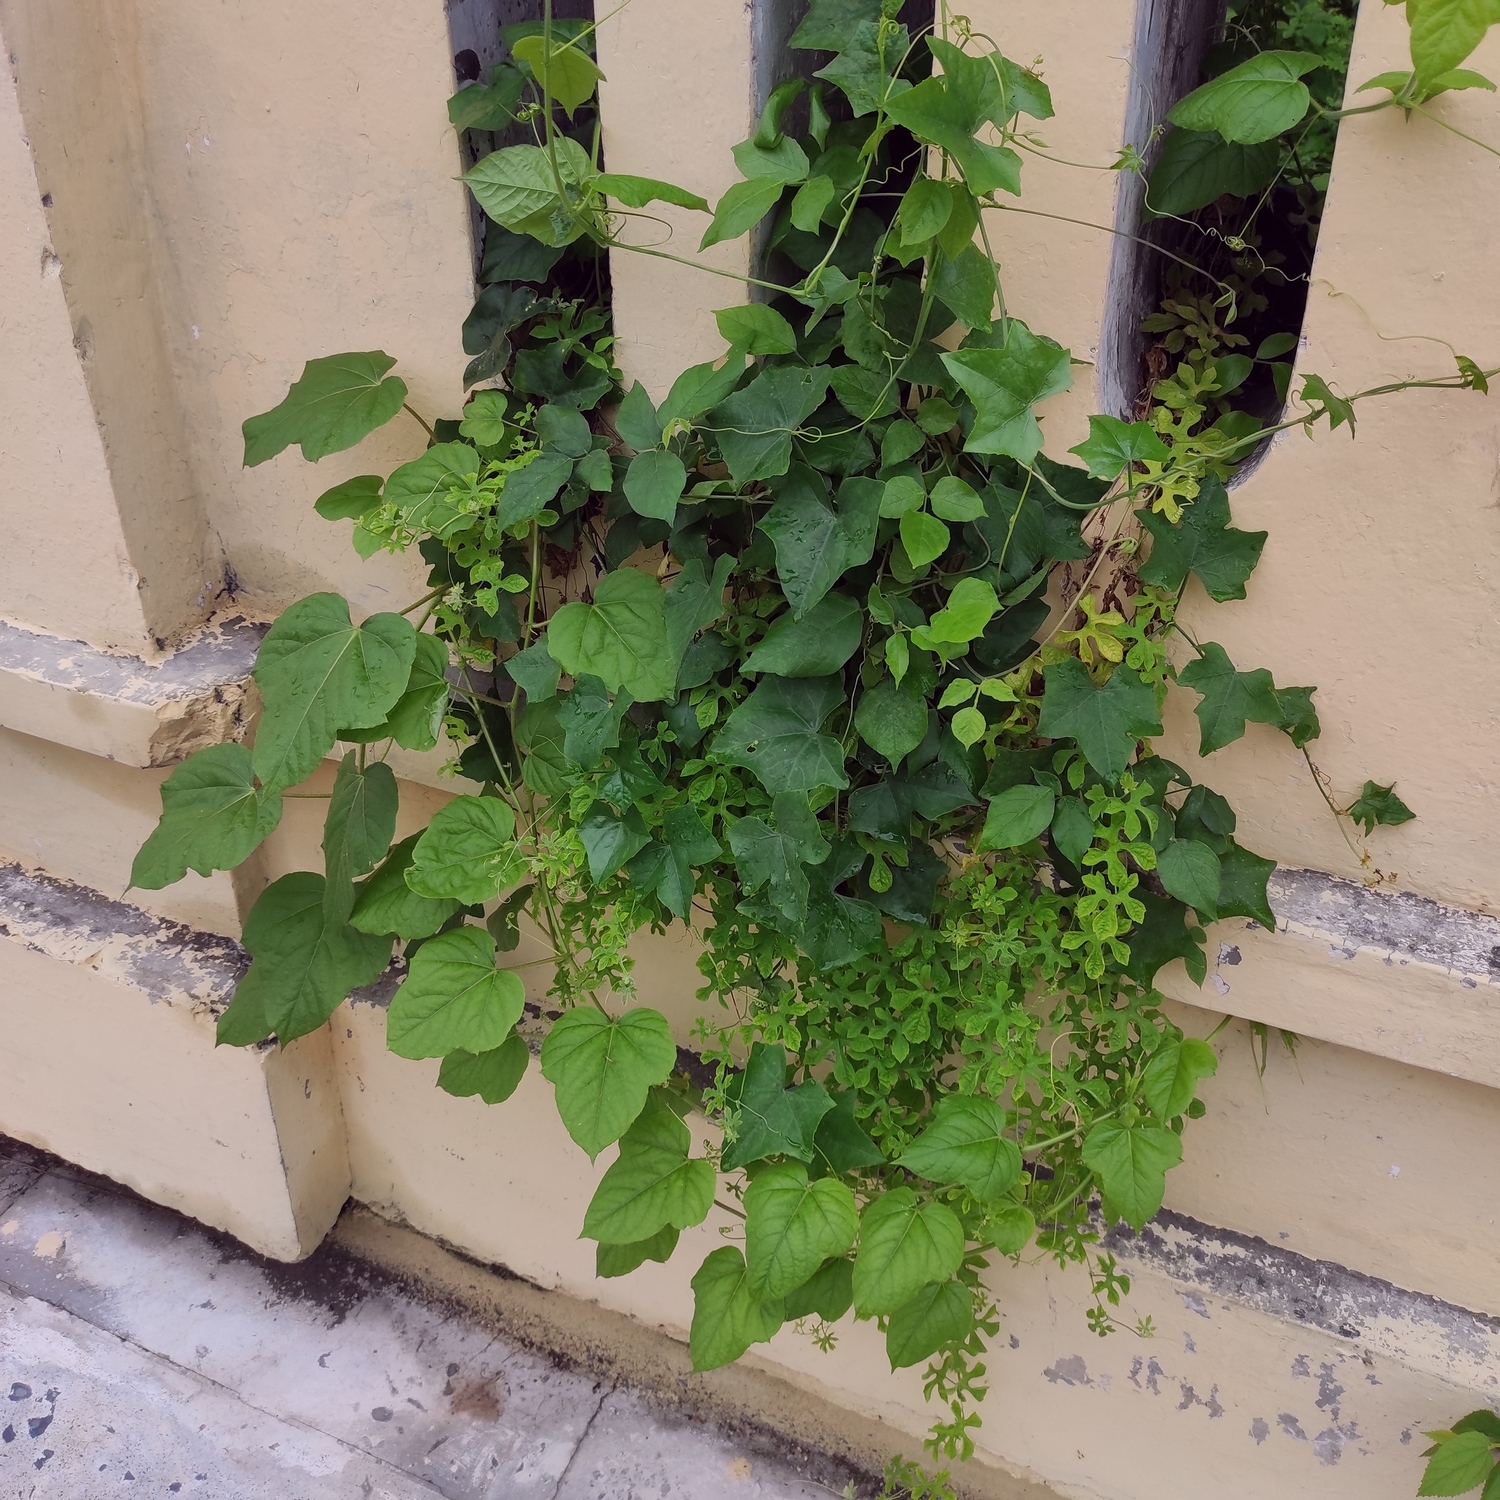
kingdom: Plantae
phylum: Tracheophyta
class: Magnoliopsida
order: Cucurbitales
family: Cucurbitaceae
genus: Momordica
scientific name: Momordica charantia
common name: Balsampear
